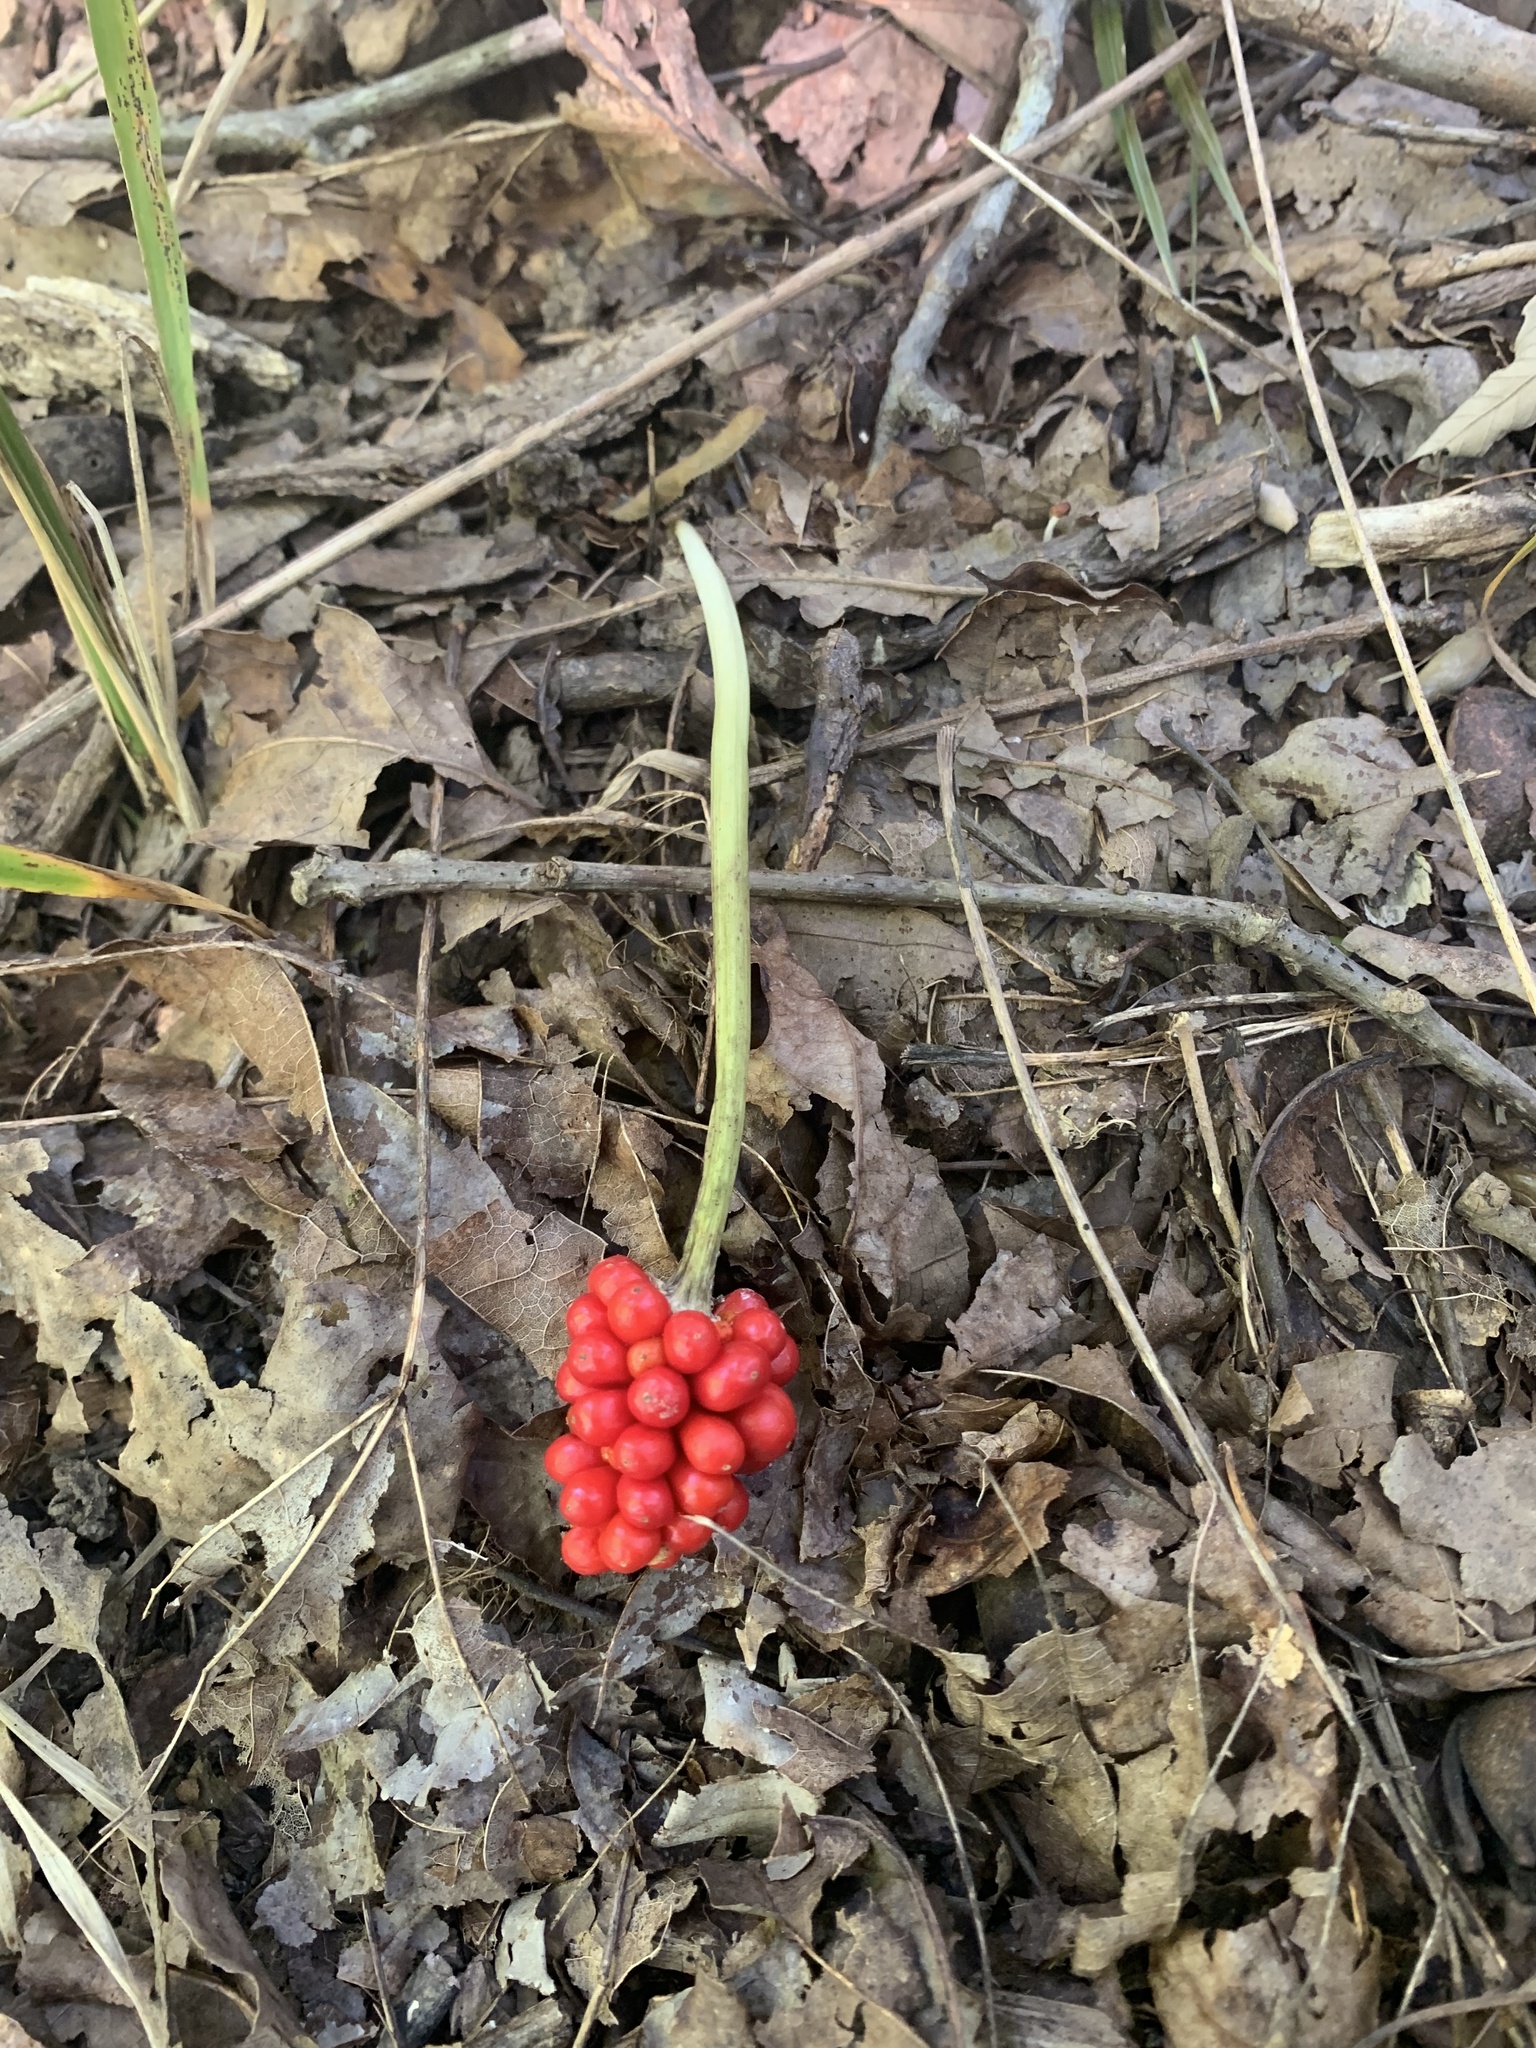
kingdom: Plantae
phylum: Tracheophyta
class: Liliopsida
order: Alismatales
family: Araceae
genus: Arisaema
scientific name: Arisaema triphyllum
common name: Jack-in-the-pulpit
